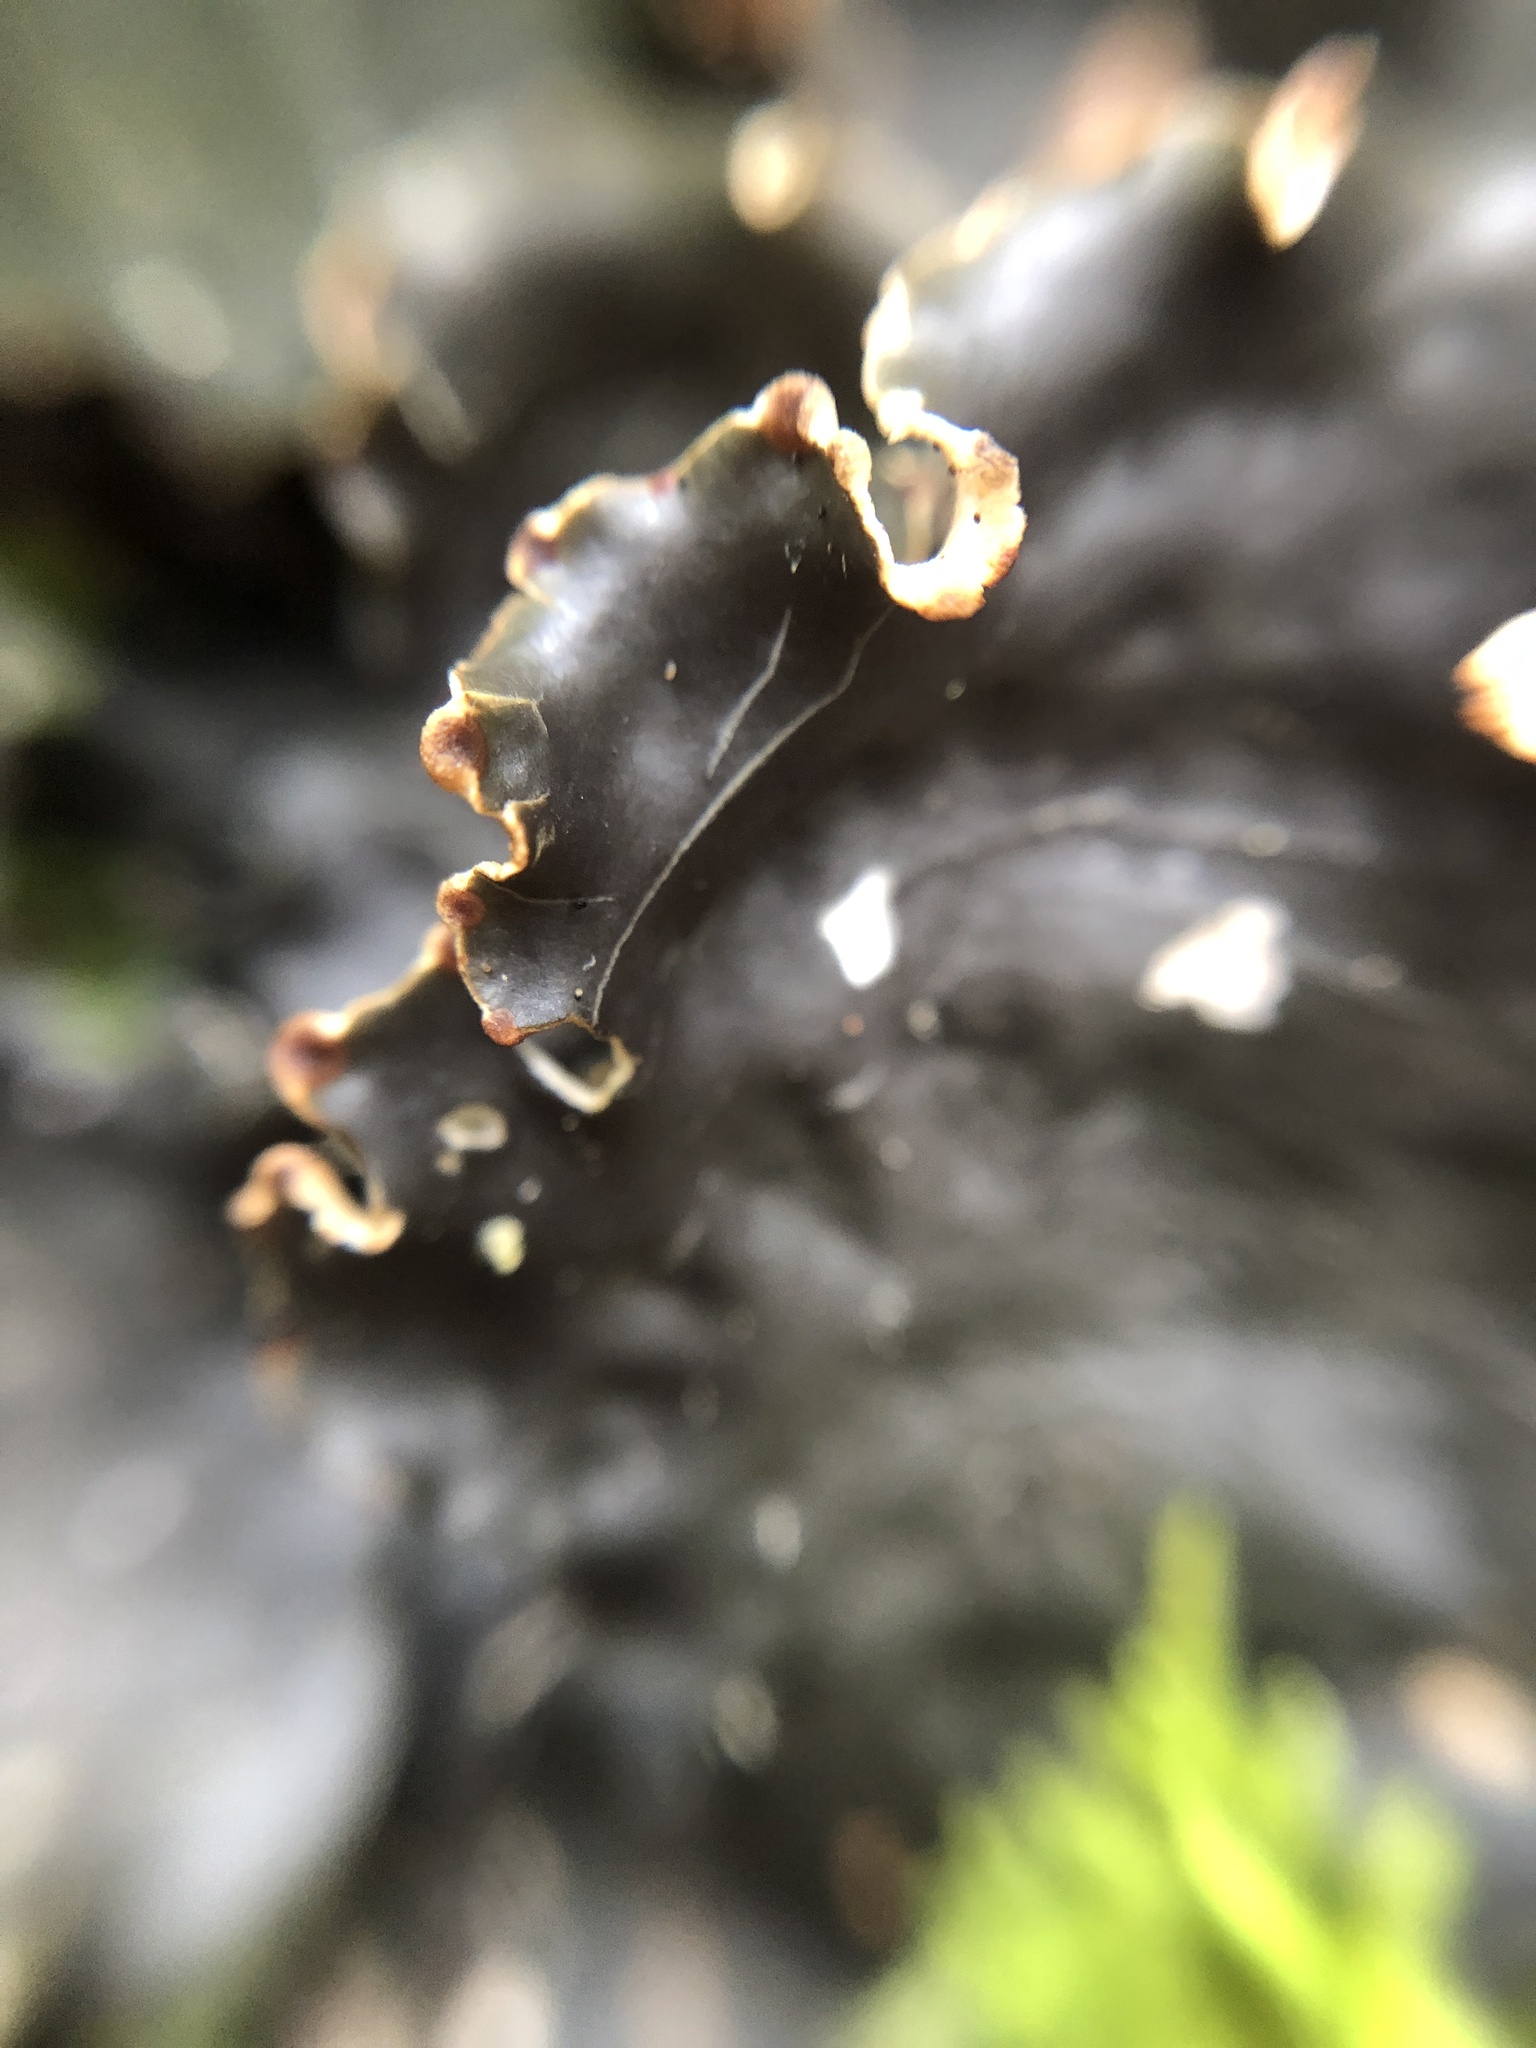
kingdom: Fungi
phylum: Ascomycota
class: Lecanoromycetes
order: Peltigerales
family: Peltigeraceae
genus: Peltigera
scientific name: Peltigera horizontalis
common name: Flat fruited pelt
